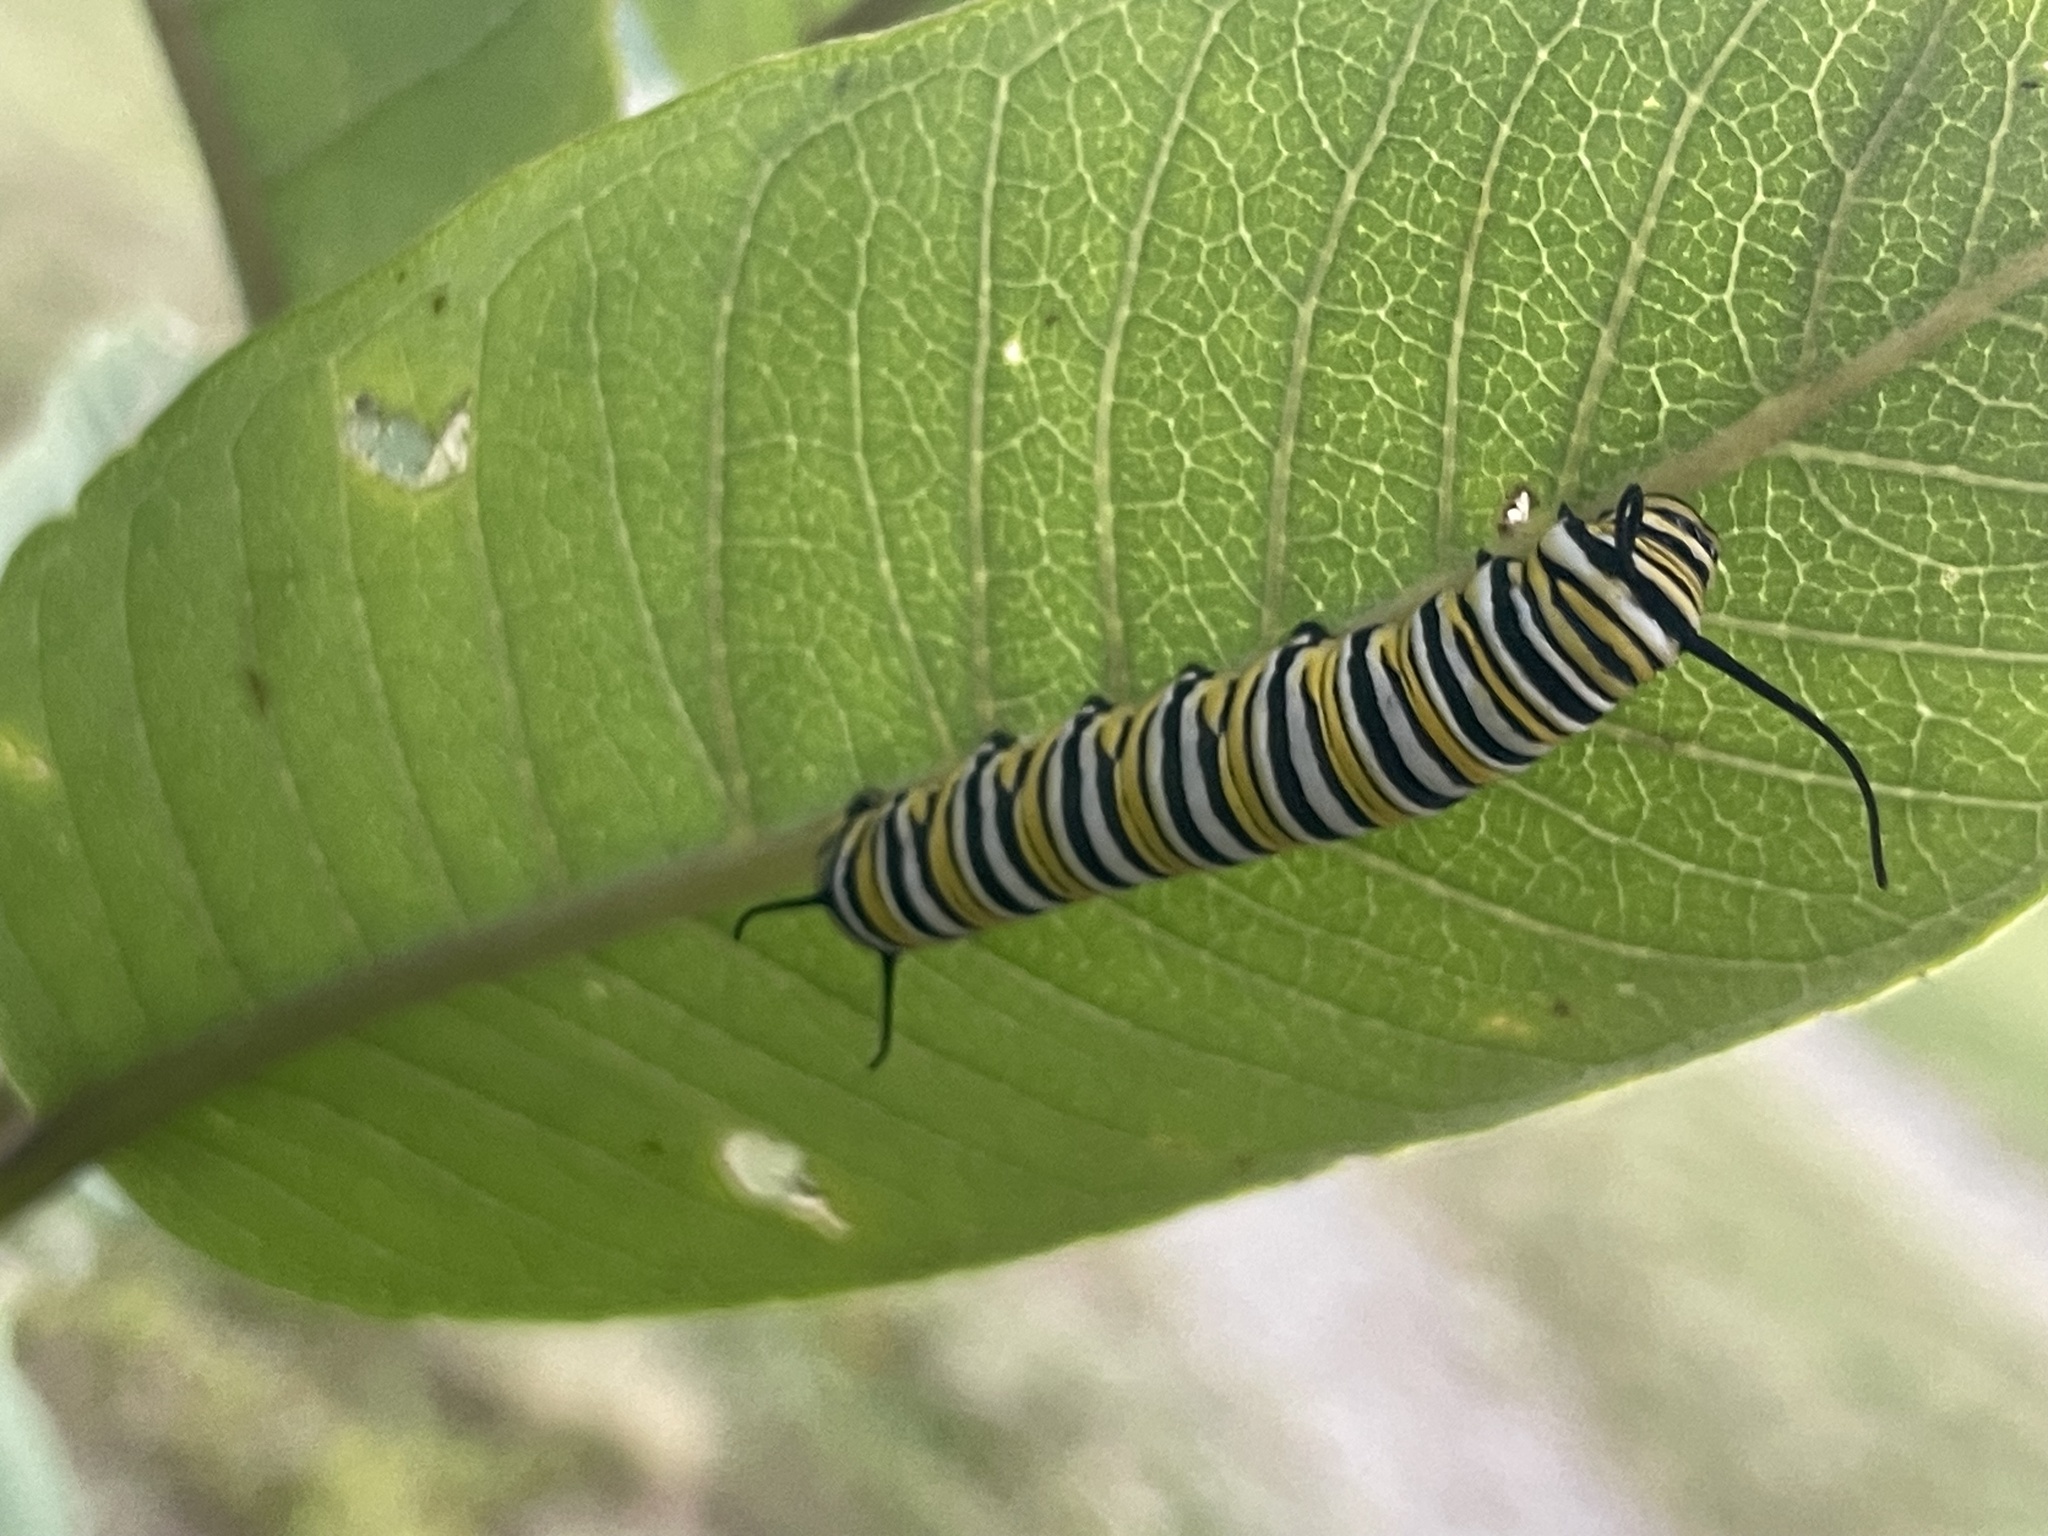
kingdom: Animalia
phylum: Arthropoda
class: Insecta
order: Lepidoptera
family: Nymphalidae
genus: Danaus
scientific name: Danaus plexippus
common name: Monarch
